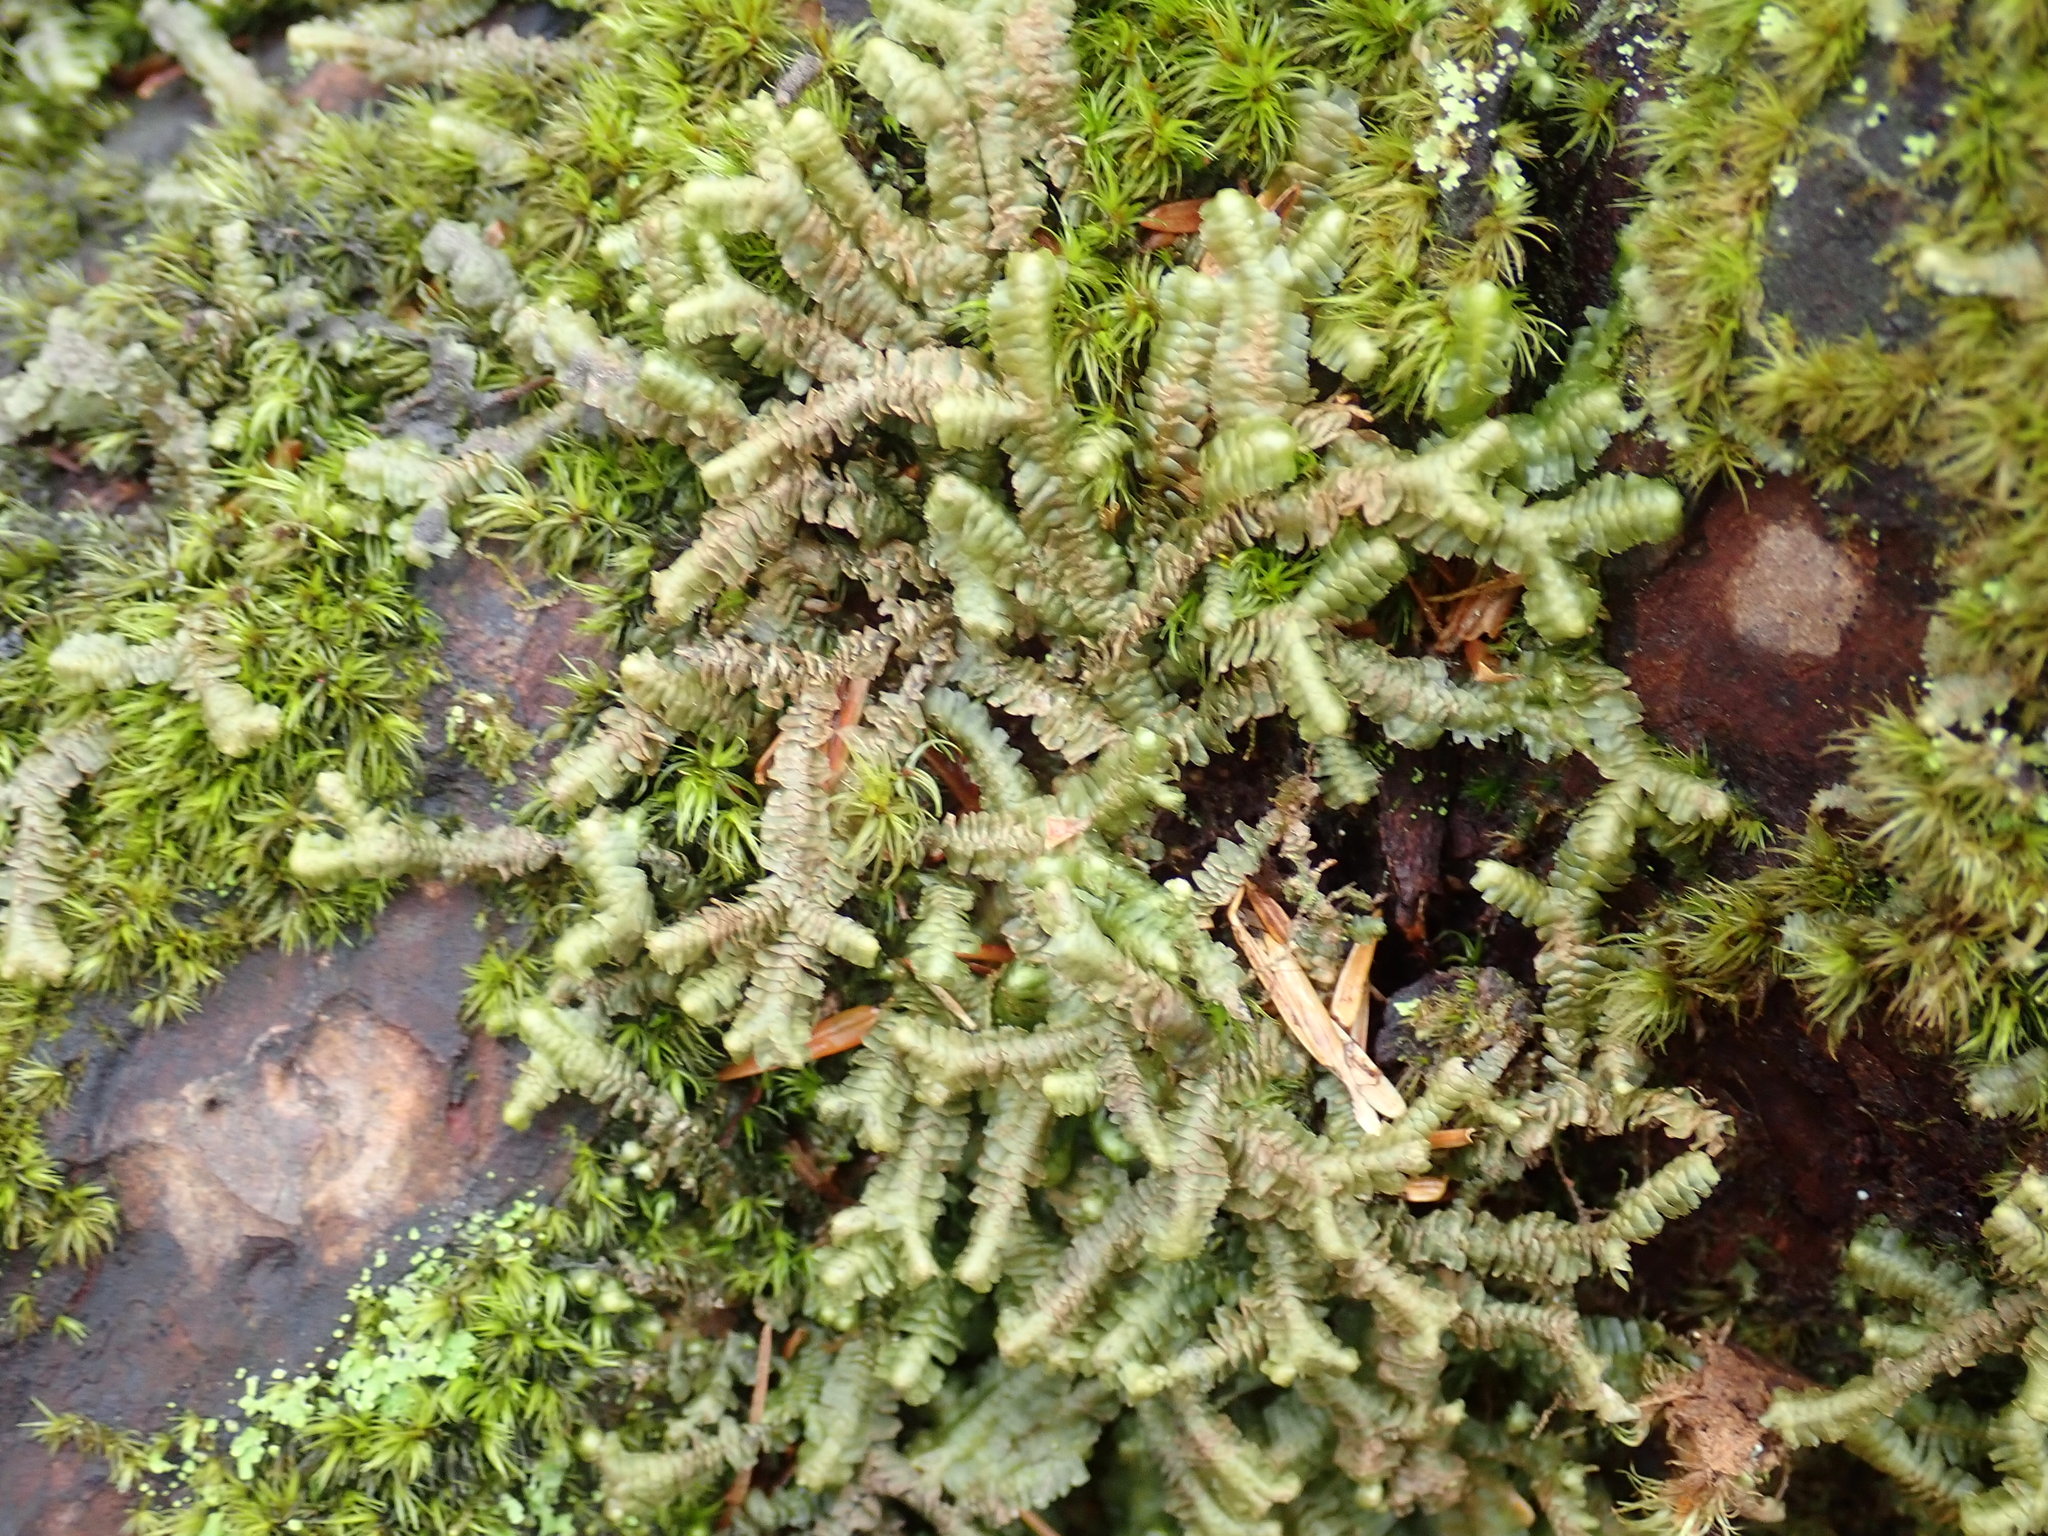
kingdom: Plantae
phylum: Marchantiophyta
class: Jungermanniopsida
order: Jungermanniales
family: Lepidoziaceae
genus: Bazzania
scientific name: Bazzania trilobata
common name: Three-lobed whipwort
